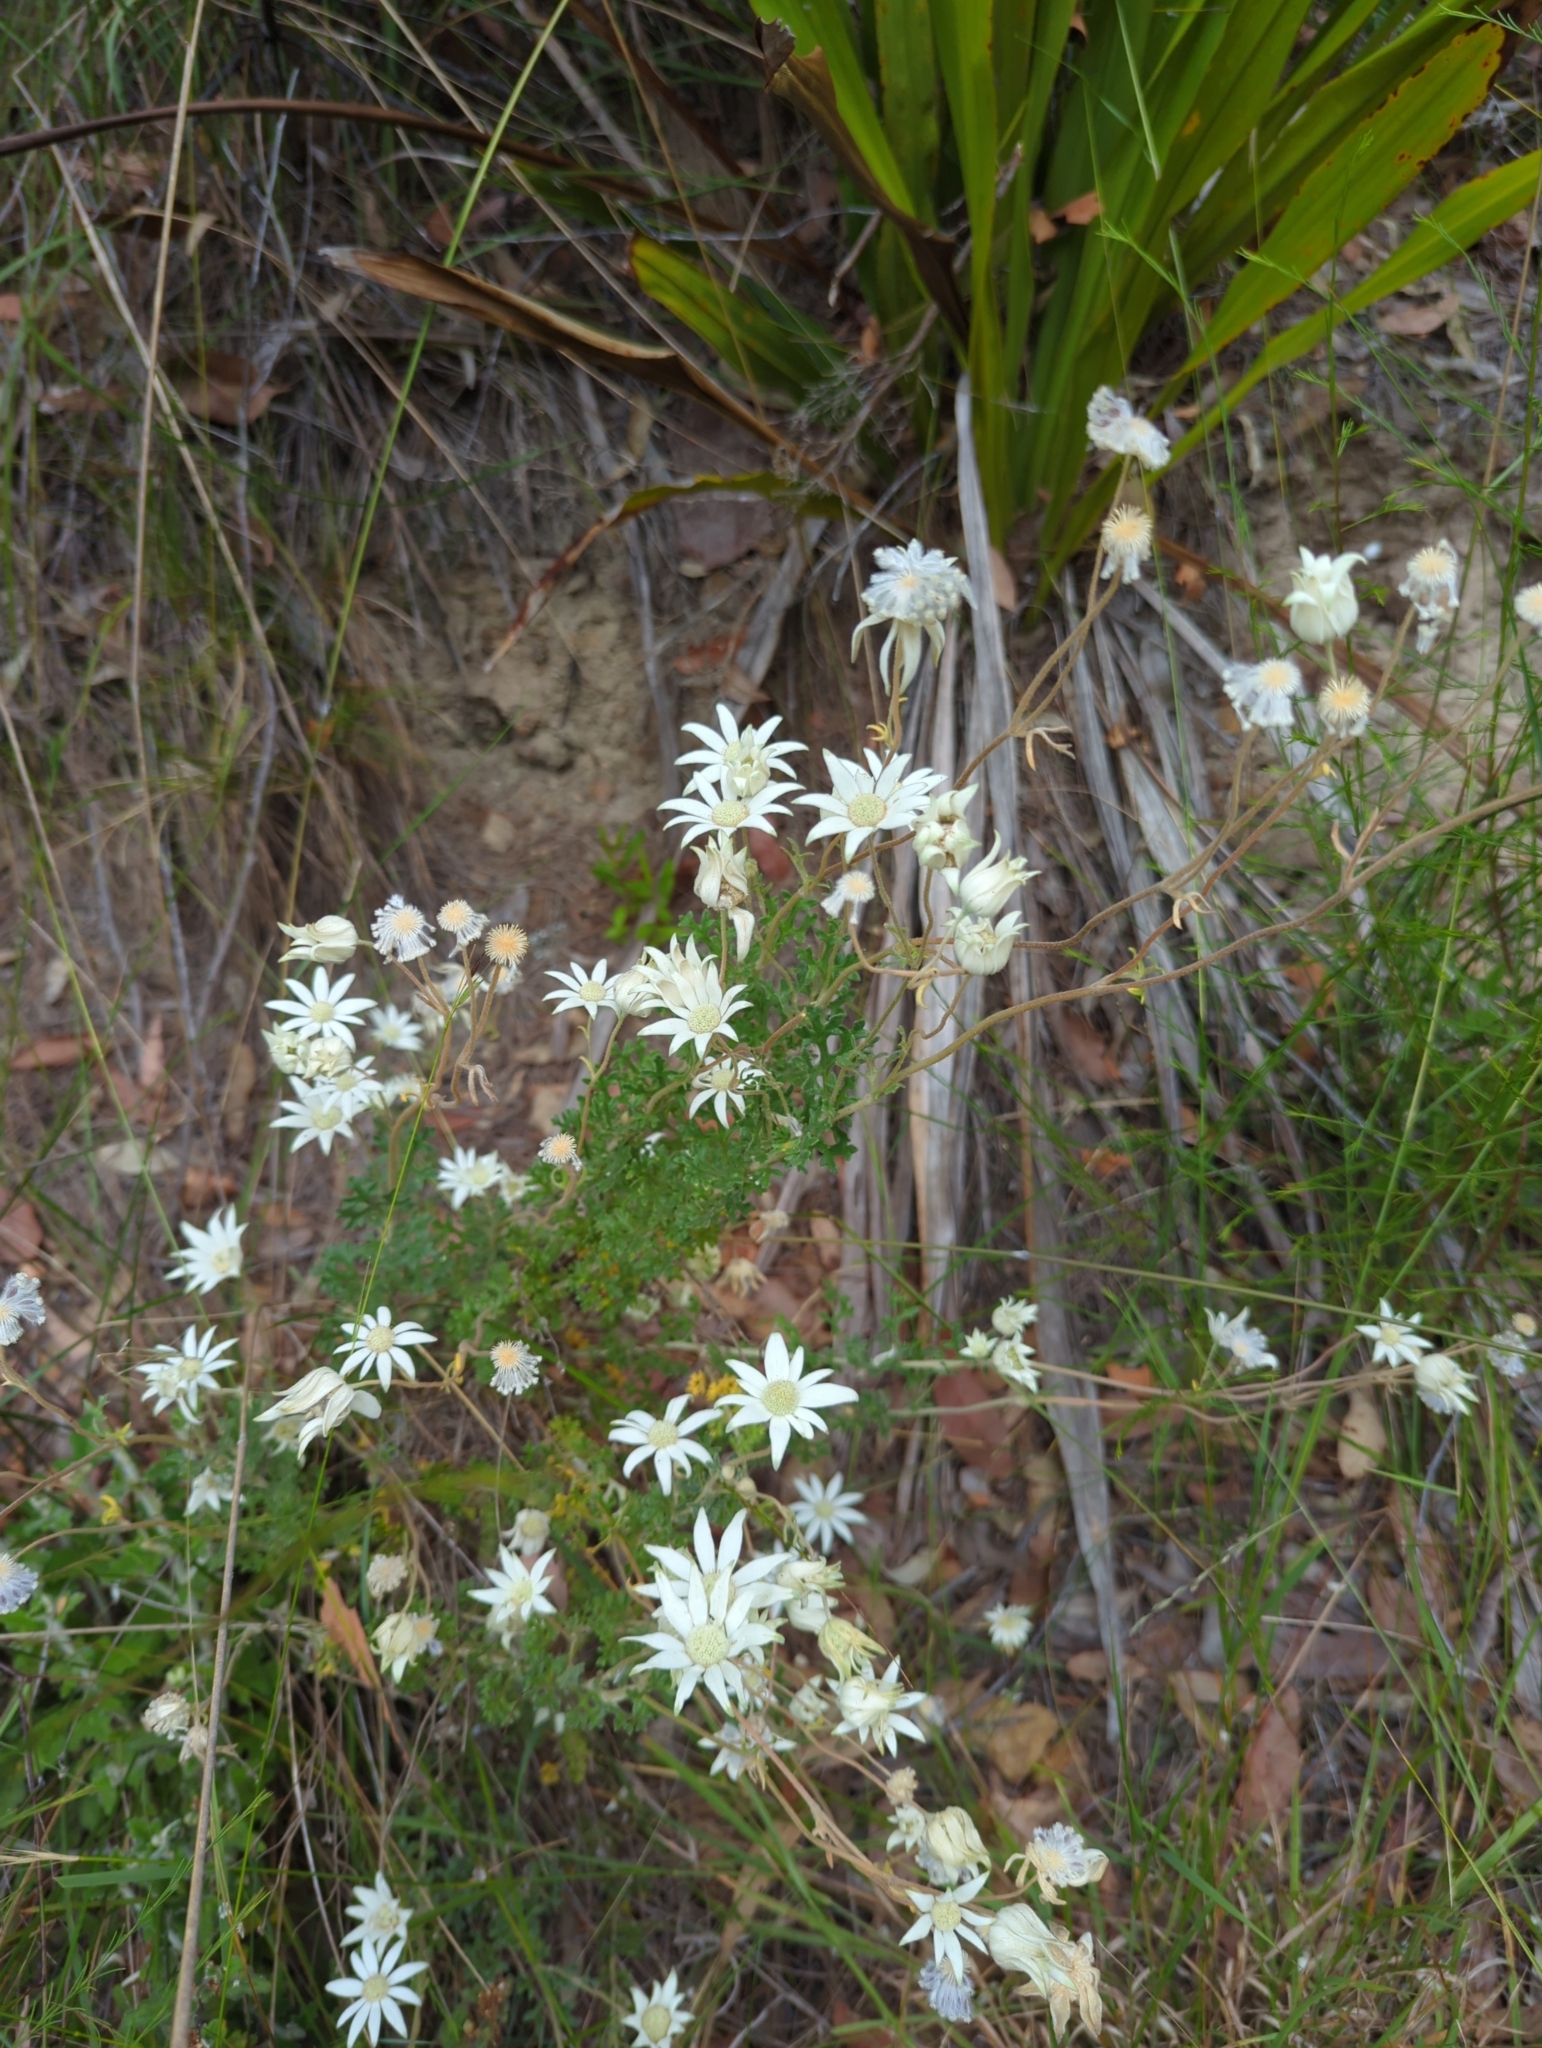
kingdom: Plantae
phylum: Tracheophyta
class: Magnoliopsida
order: Apiales
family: Apiaceae
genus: Actinotus
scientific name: Actinotus helianthi
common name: Flannel-flower
